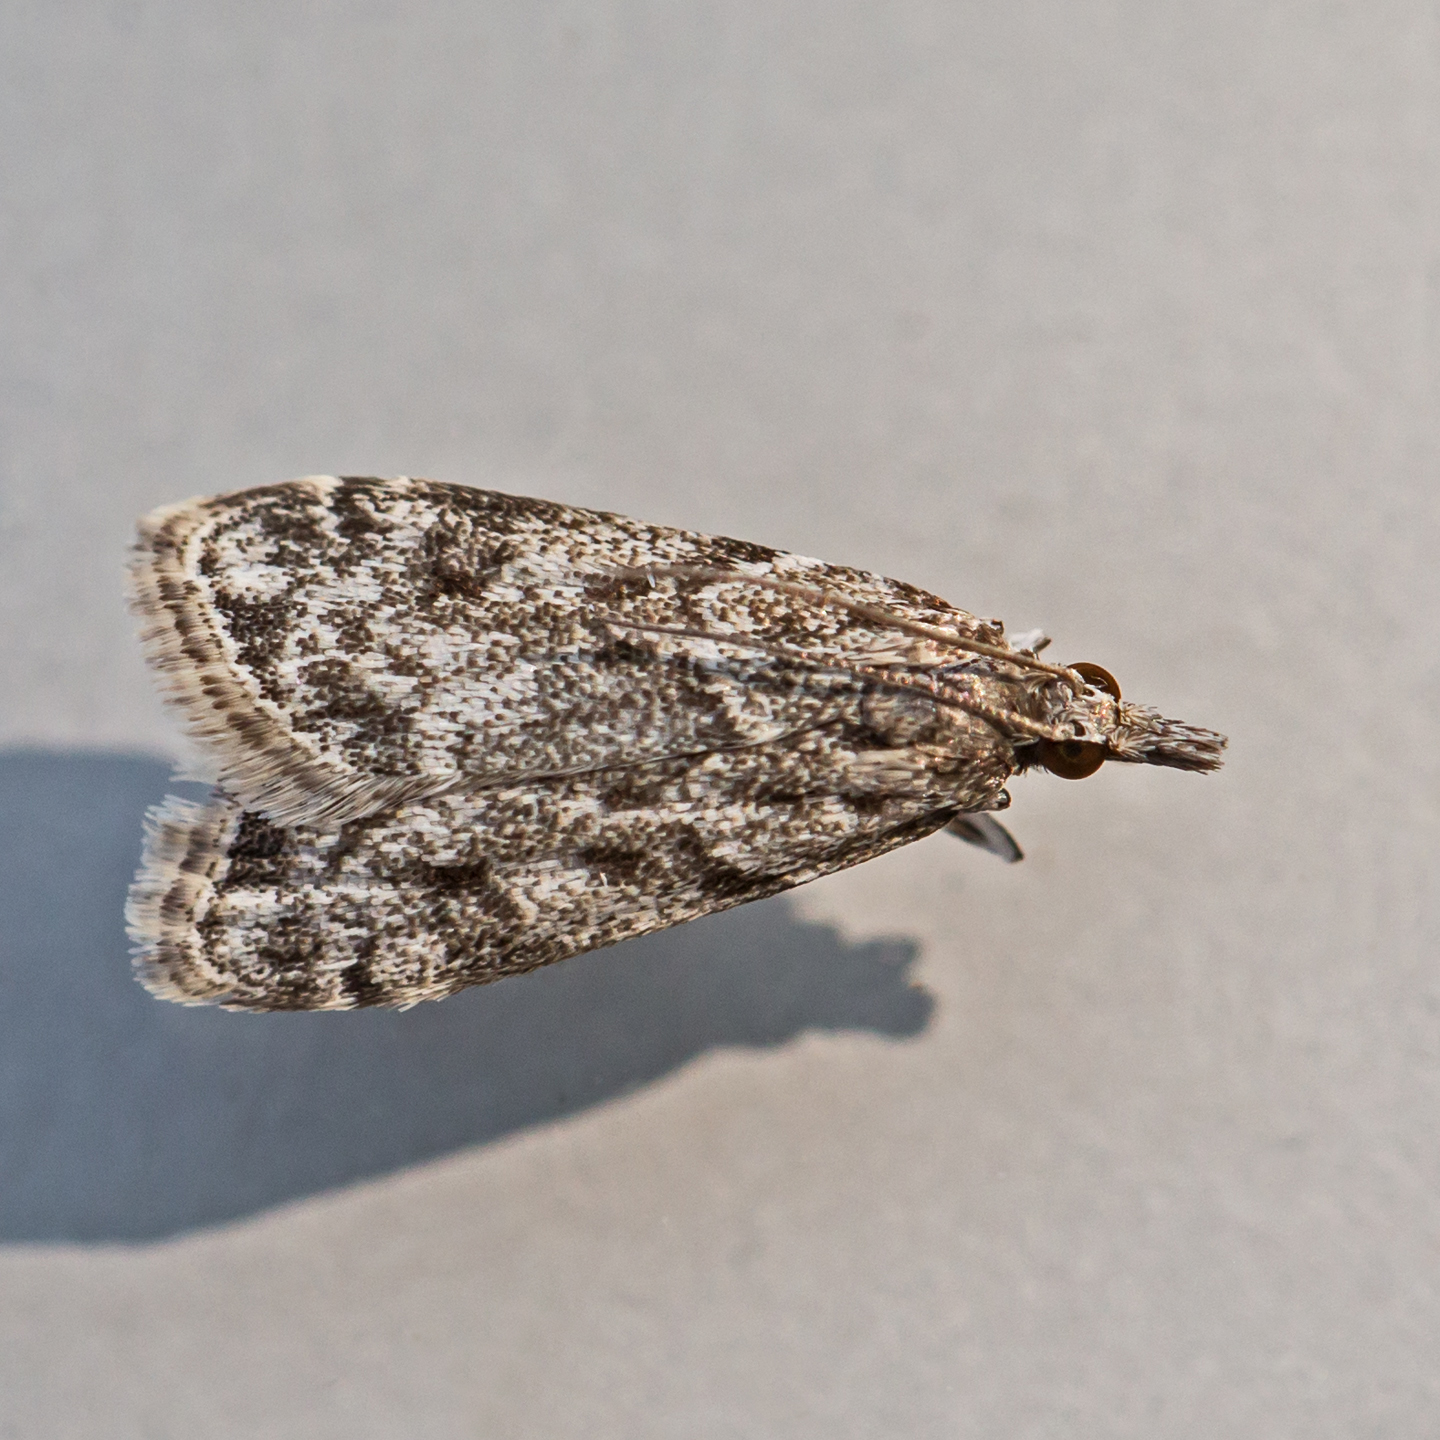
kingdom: Animalia
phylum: Arthropoda
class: Insecta
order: Lepidoptera
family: Crambidae
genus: Eudonia
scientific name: Eudonia heterosalis
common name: Mcdunnough's eudonia
